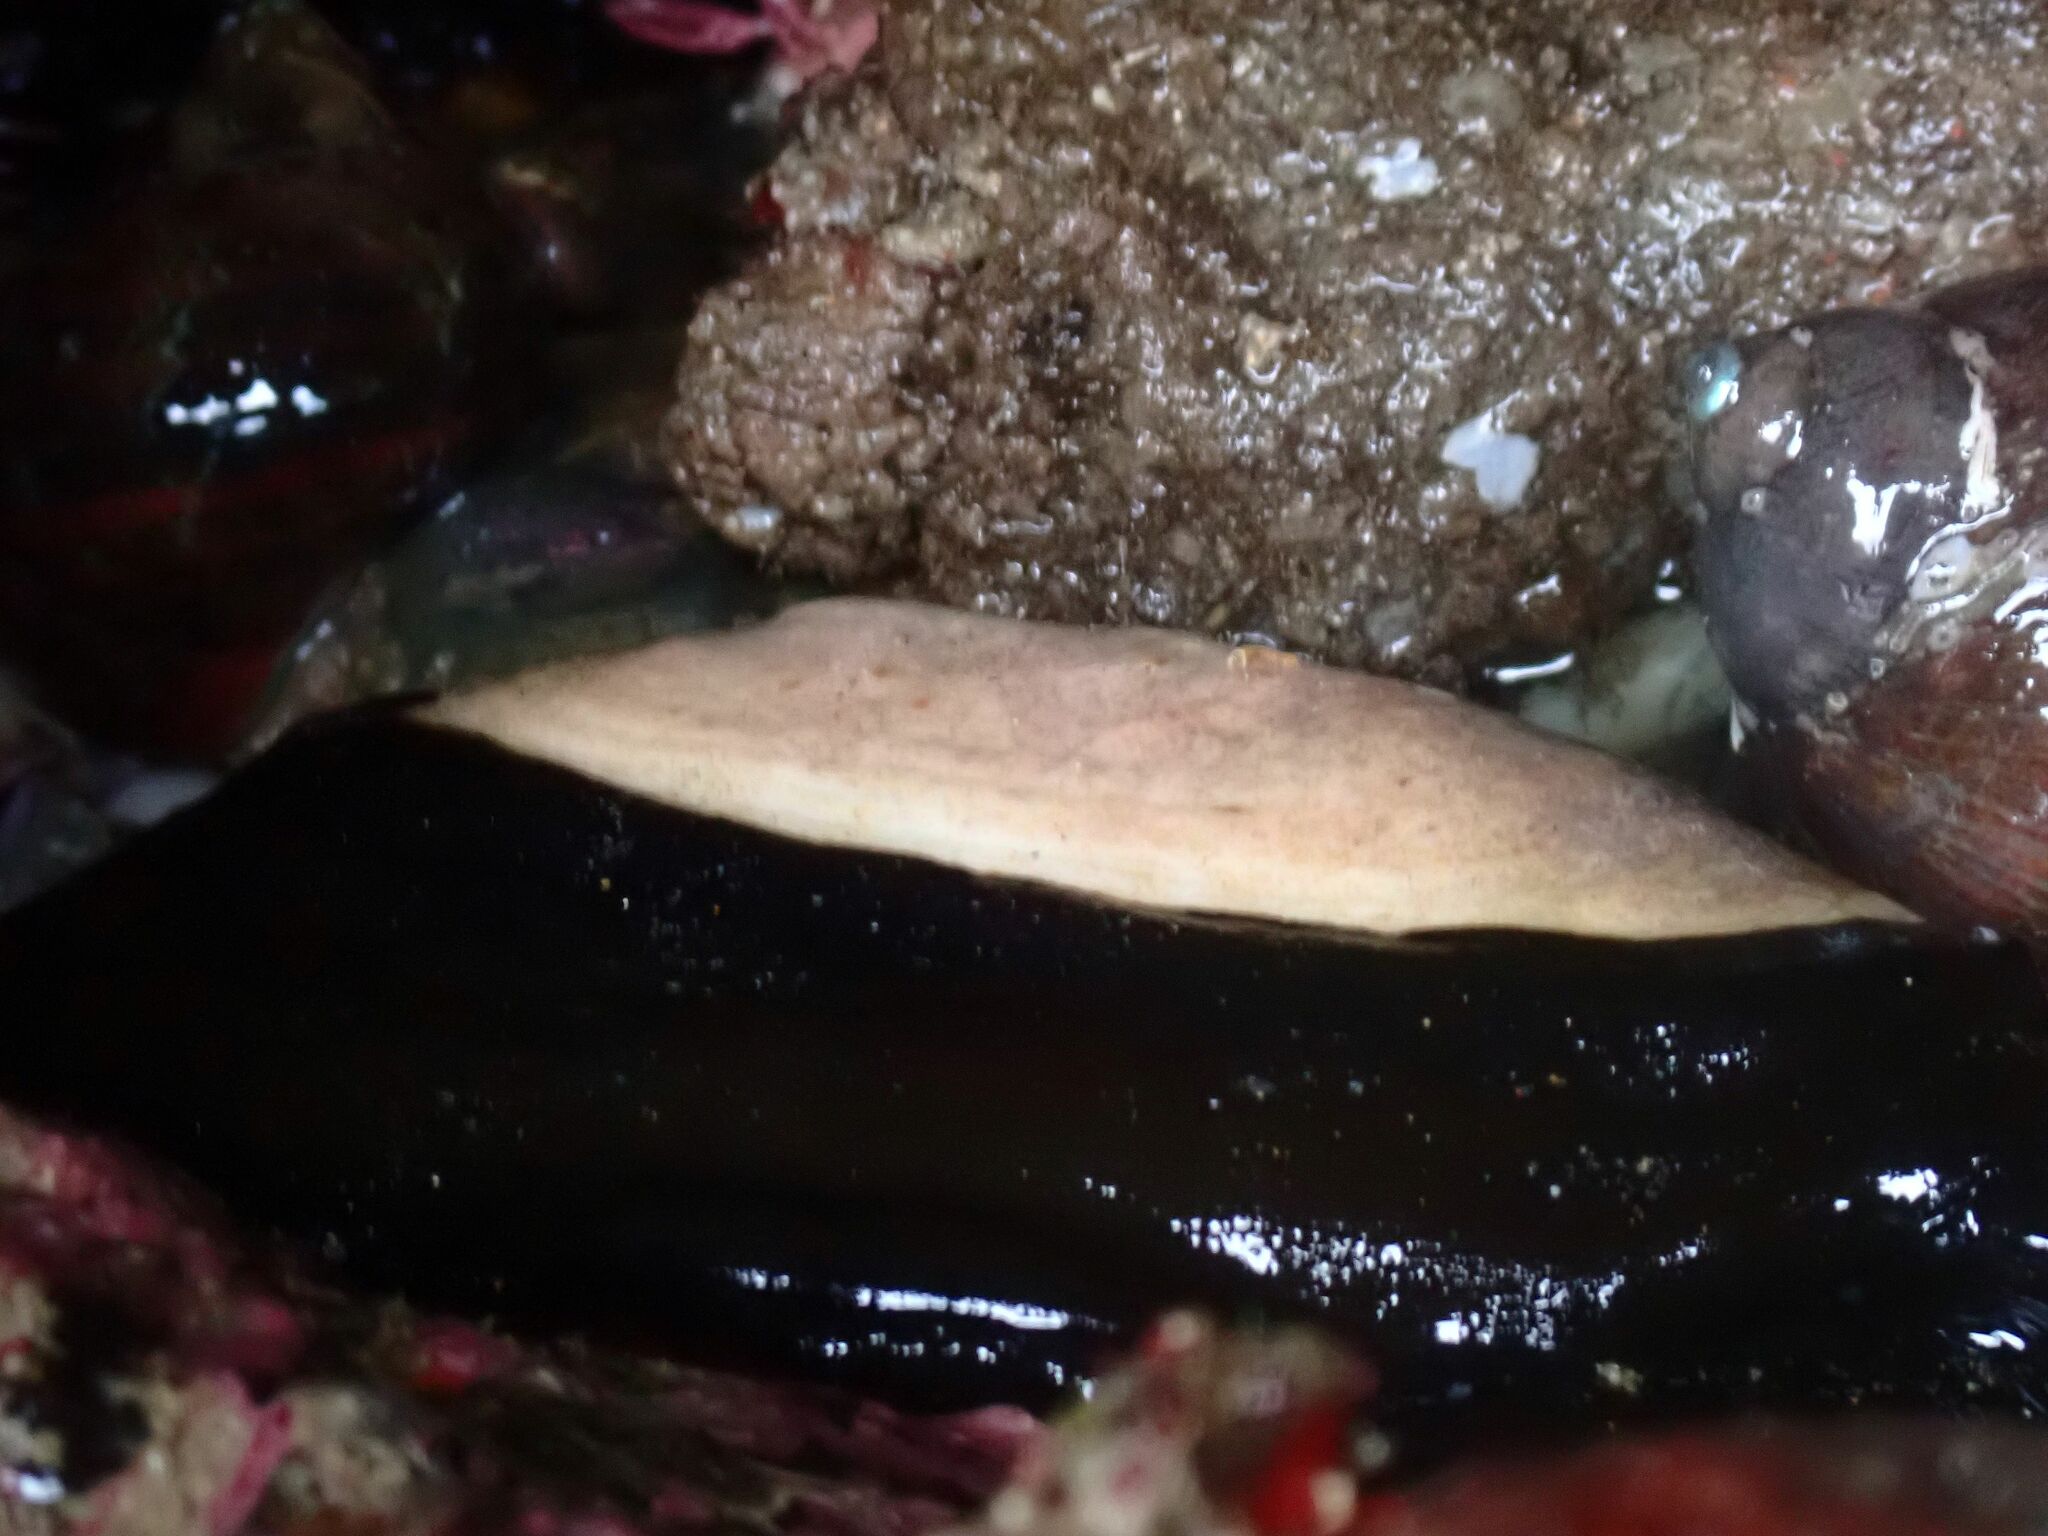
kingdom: Animalia
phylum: Mollusca
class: Gastropoda
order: Lepetellida
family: Fissurellidae
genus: Scutus
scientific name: Scutus antipodes
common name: Duckbill shell
